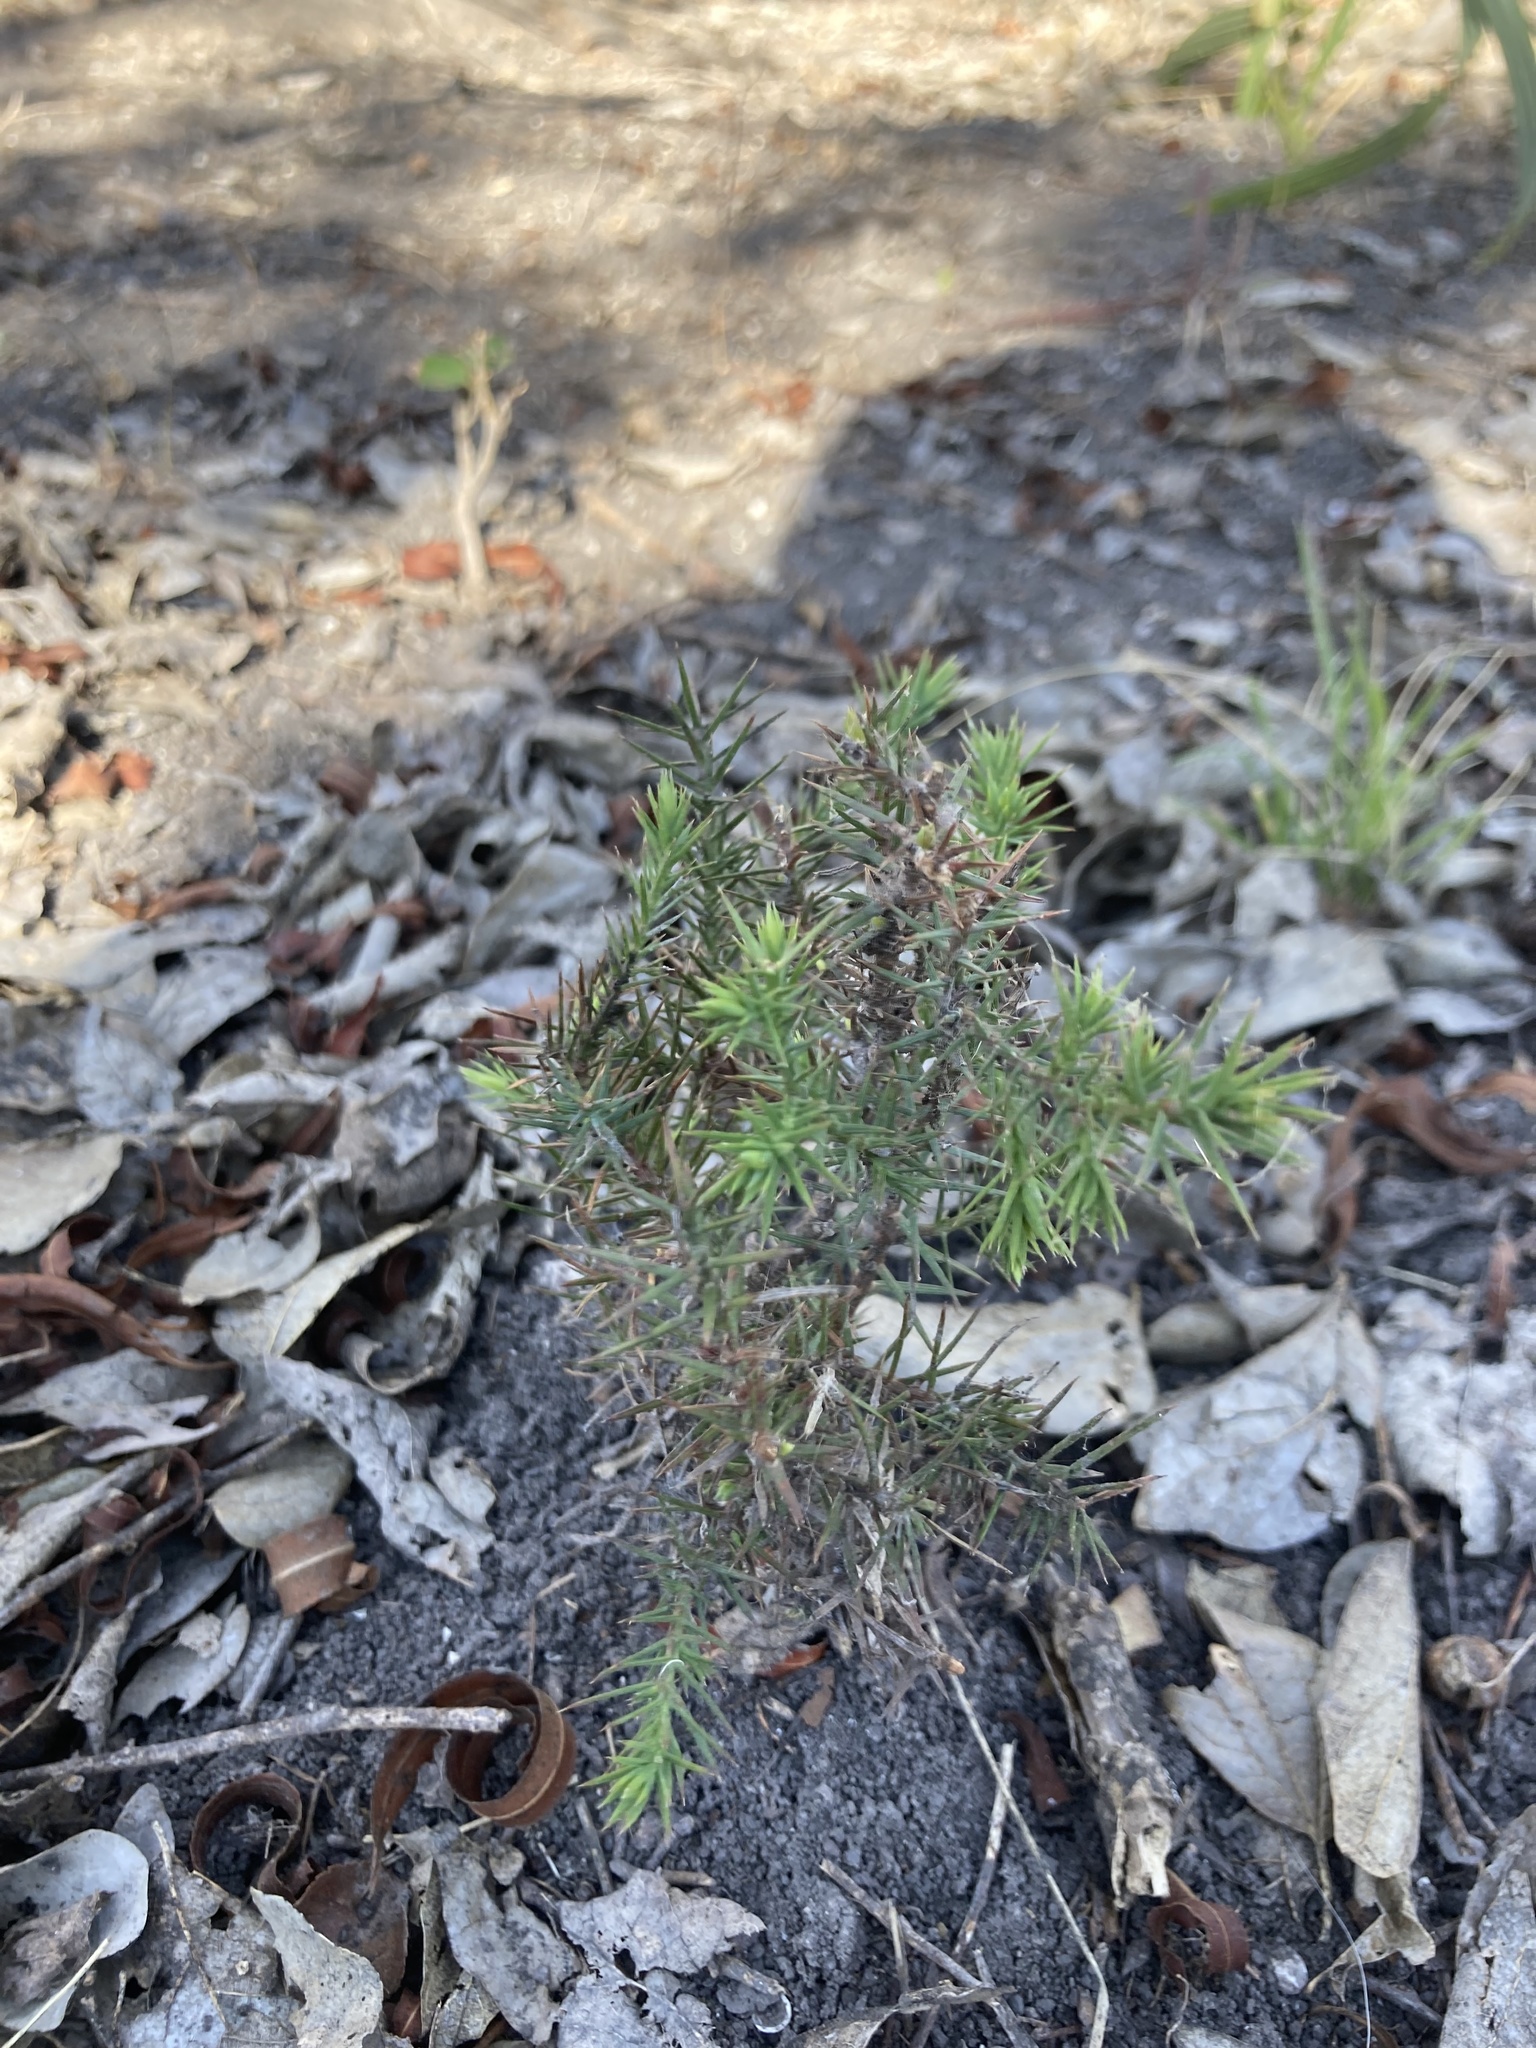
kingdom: Plantae
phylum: Tracheophyta
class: Pinopsida
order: Pinales
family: Cupressaceae
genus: Juniperus
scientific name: Juniperus ashei
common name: Mexican juniper
